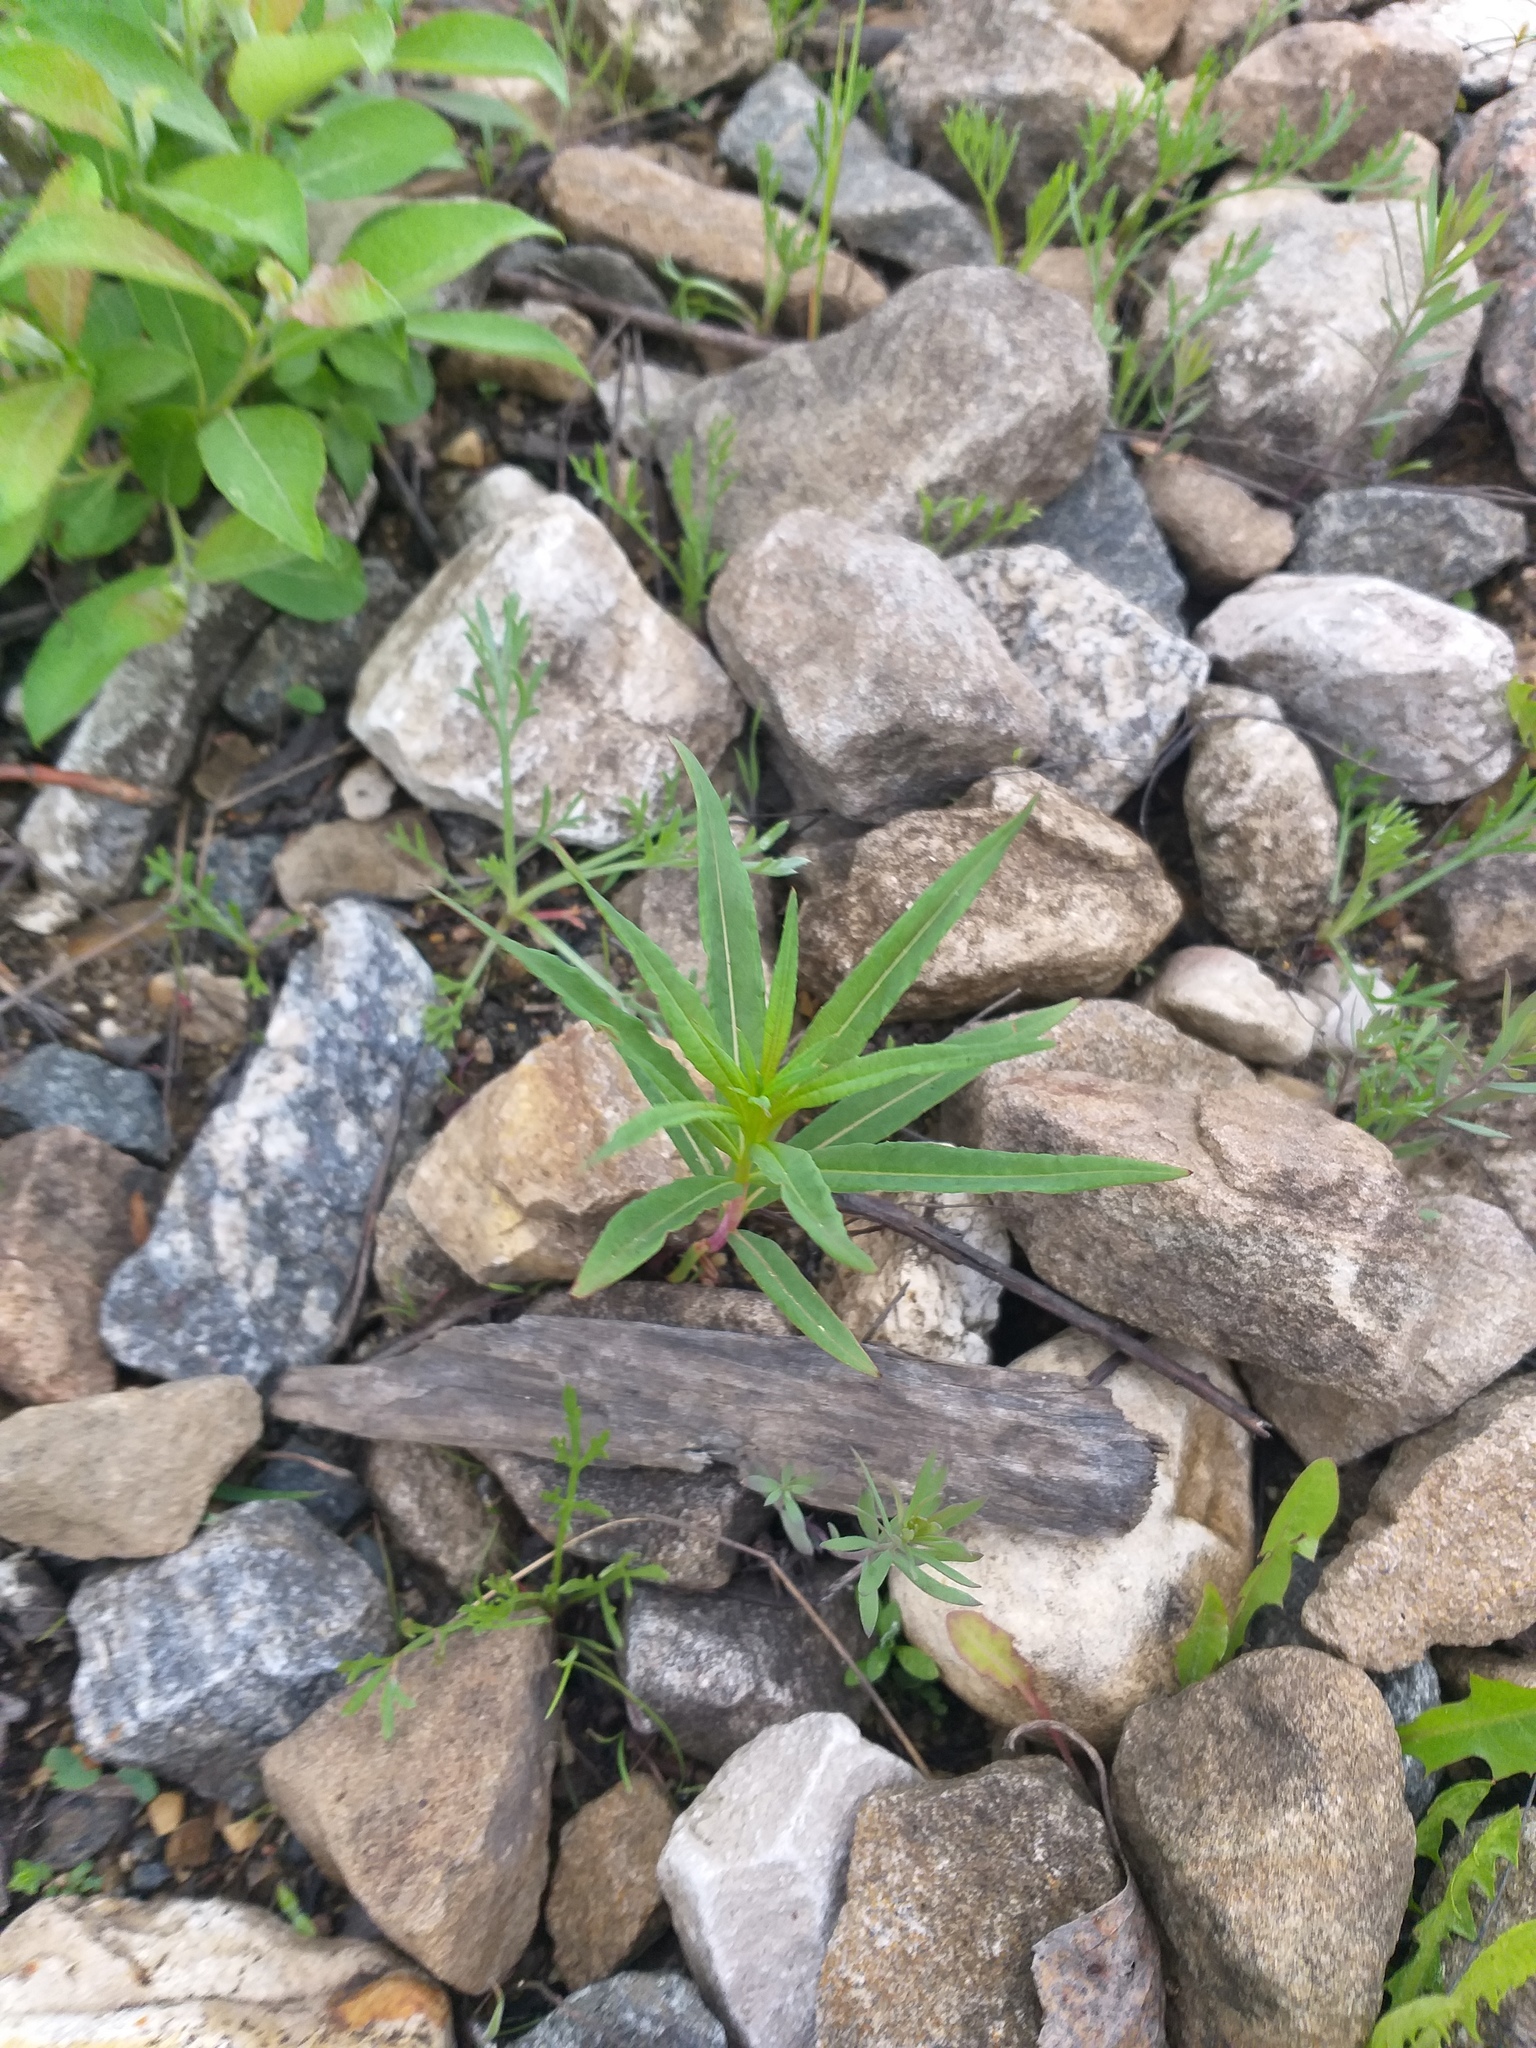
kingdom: Plantae
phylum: Tracheophyta
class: Magnoliopsida
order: Myrtales
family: Onagraceae
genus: Chamaenerion
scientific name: Chamaenerion angustifolium
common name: Fireweed
